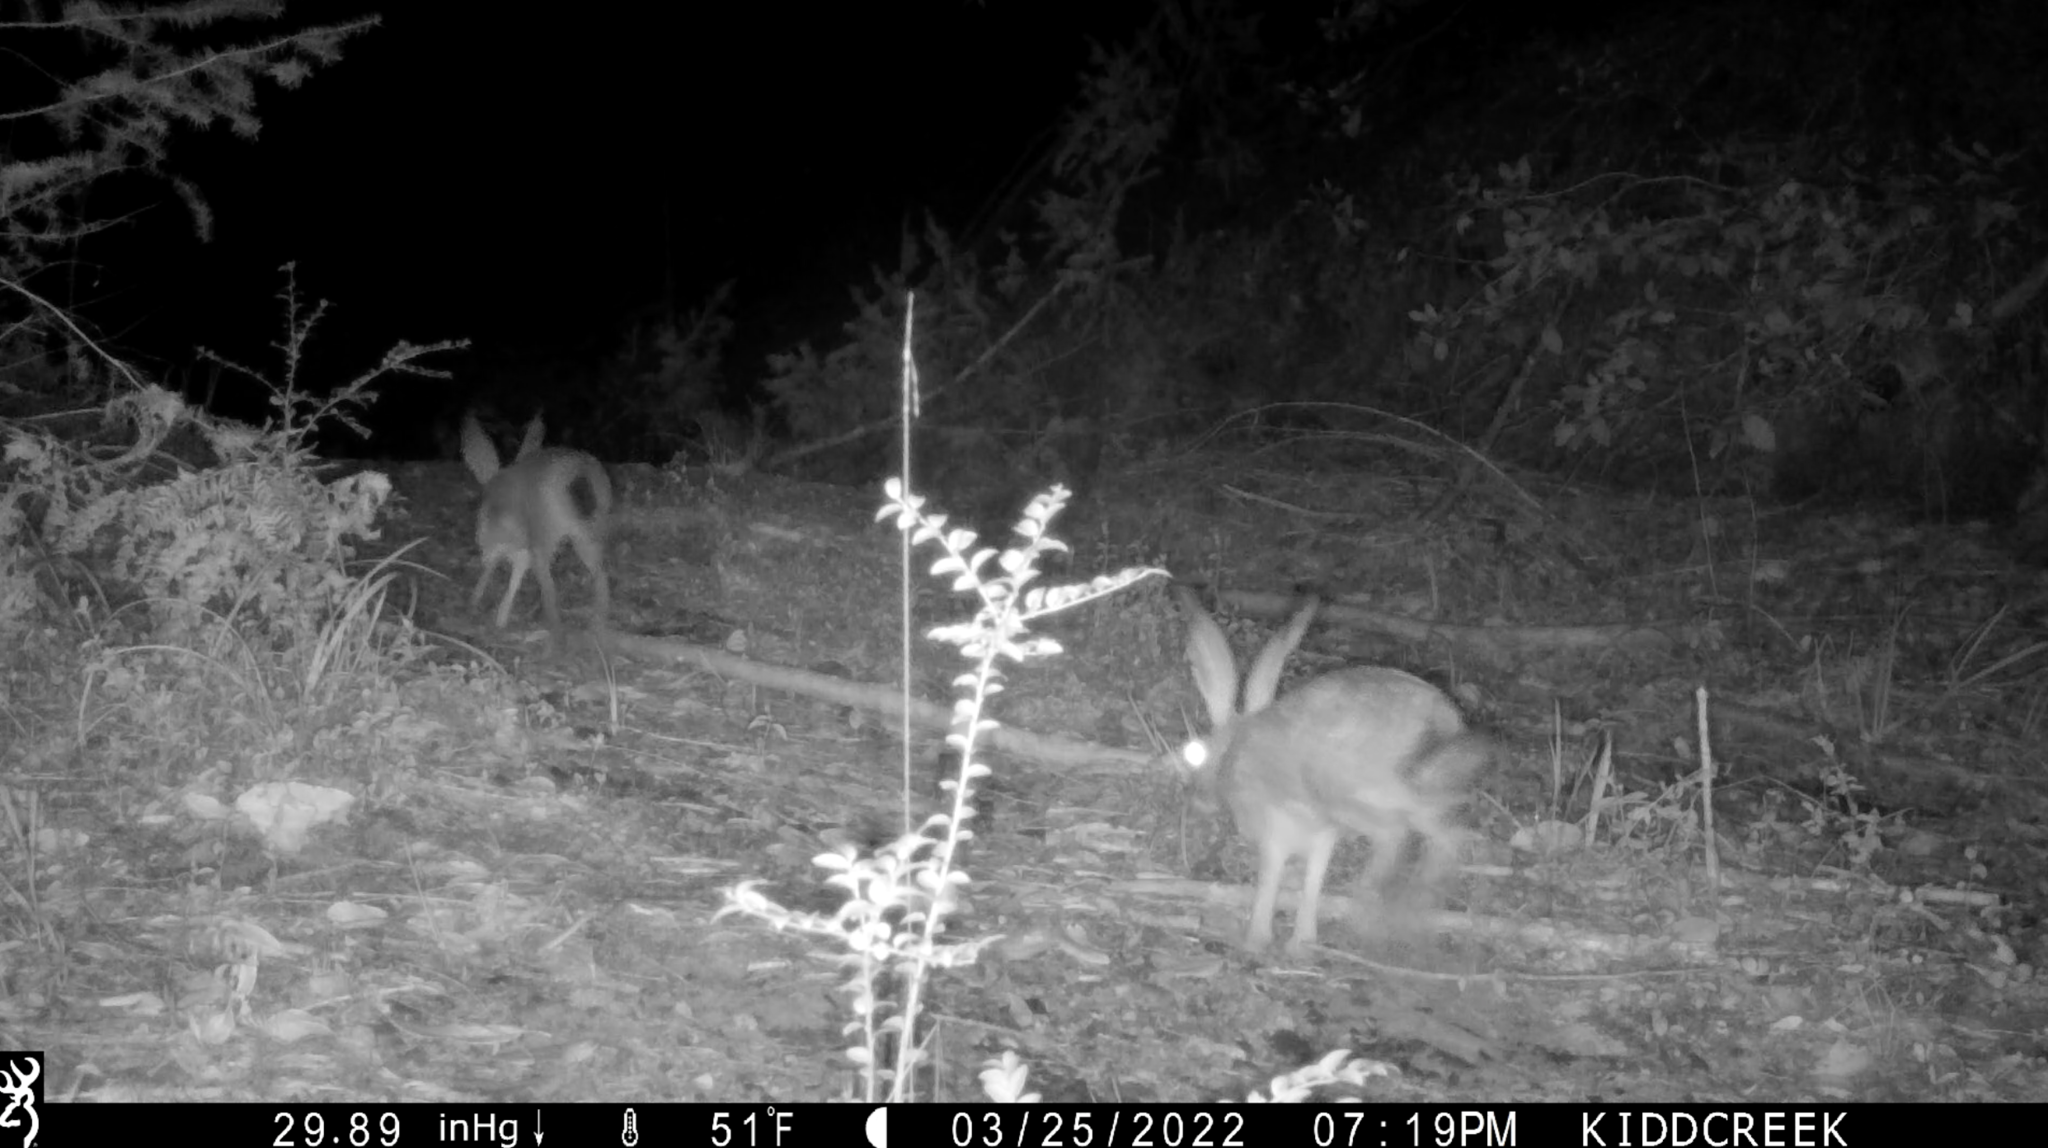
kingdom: Animalia
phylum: Chordata
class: Mammalia
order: Lagomorpha
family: Leporidae
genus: Lepus
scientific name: Lepus californicus
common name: Black-tailed jackrabbit
